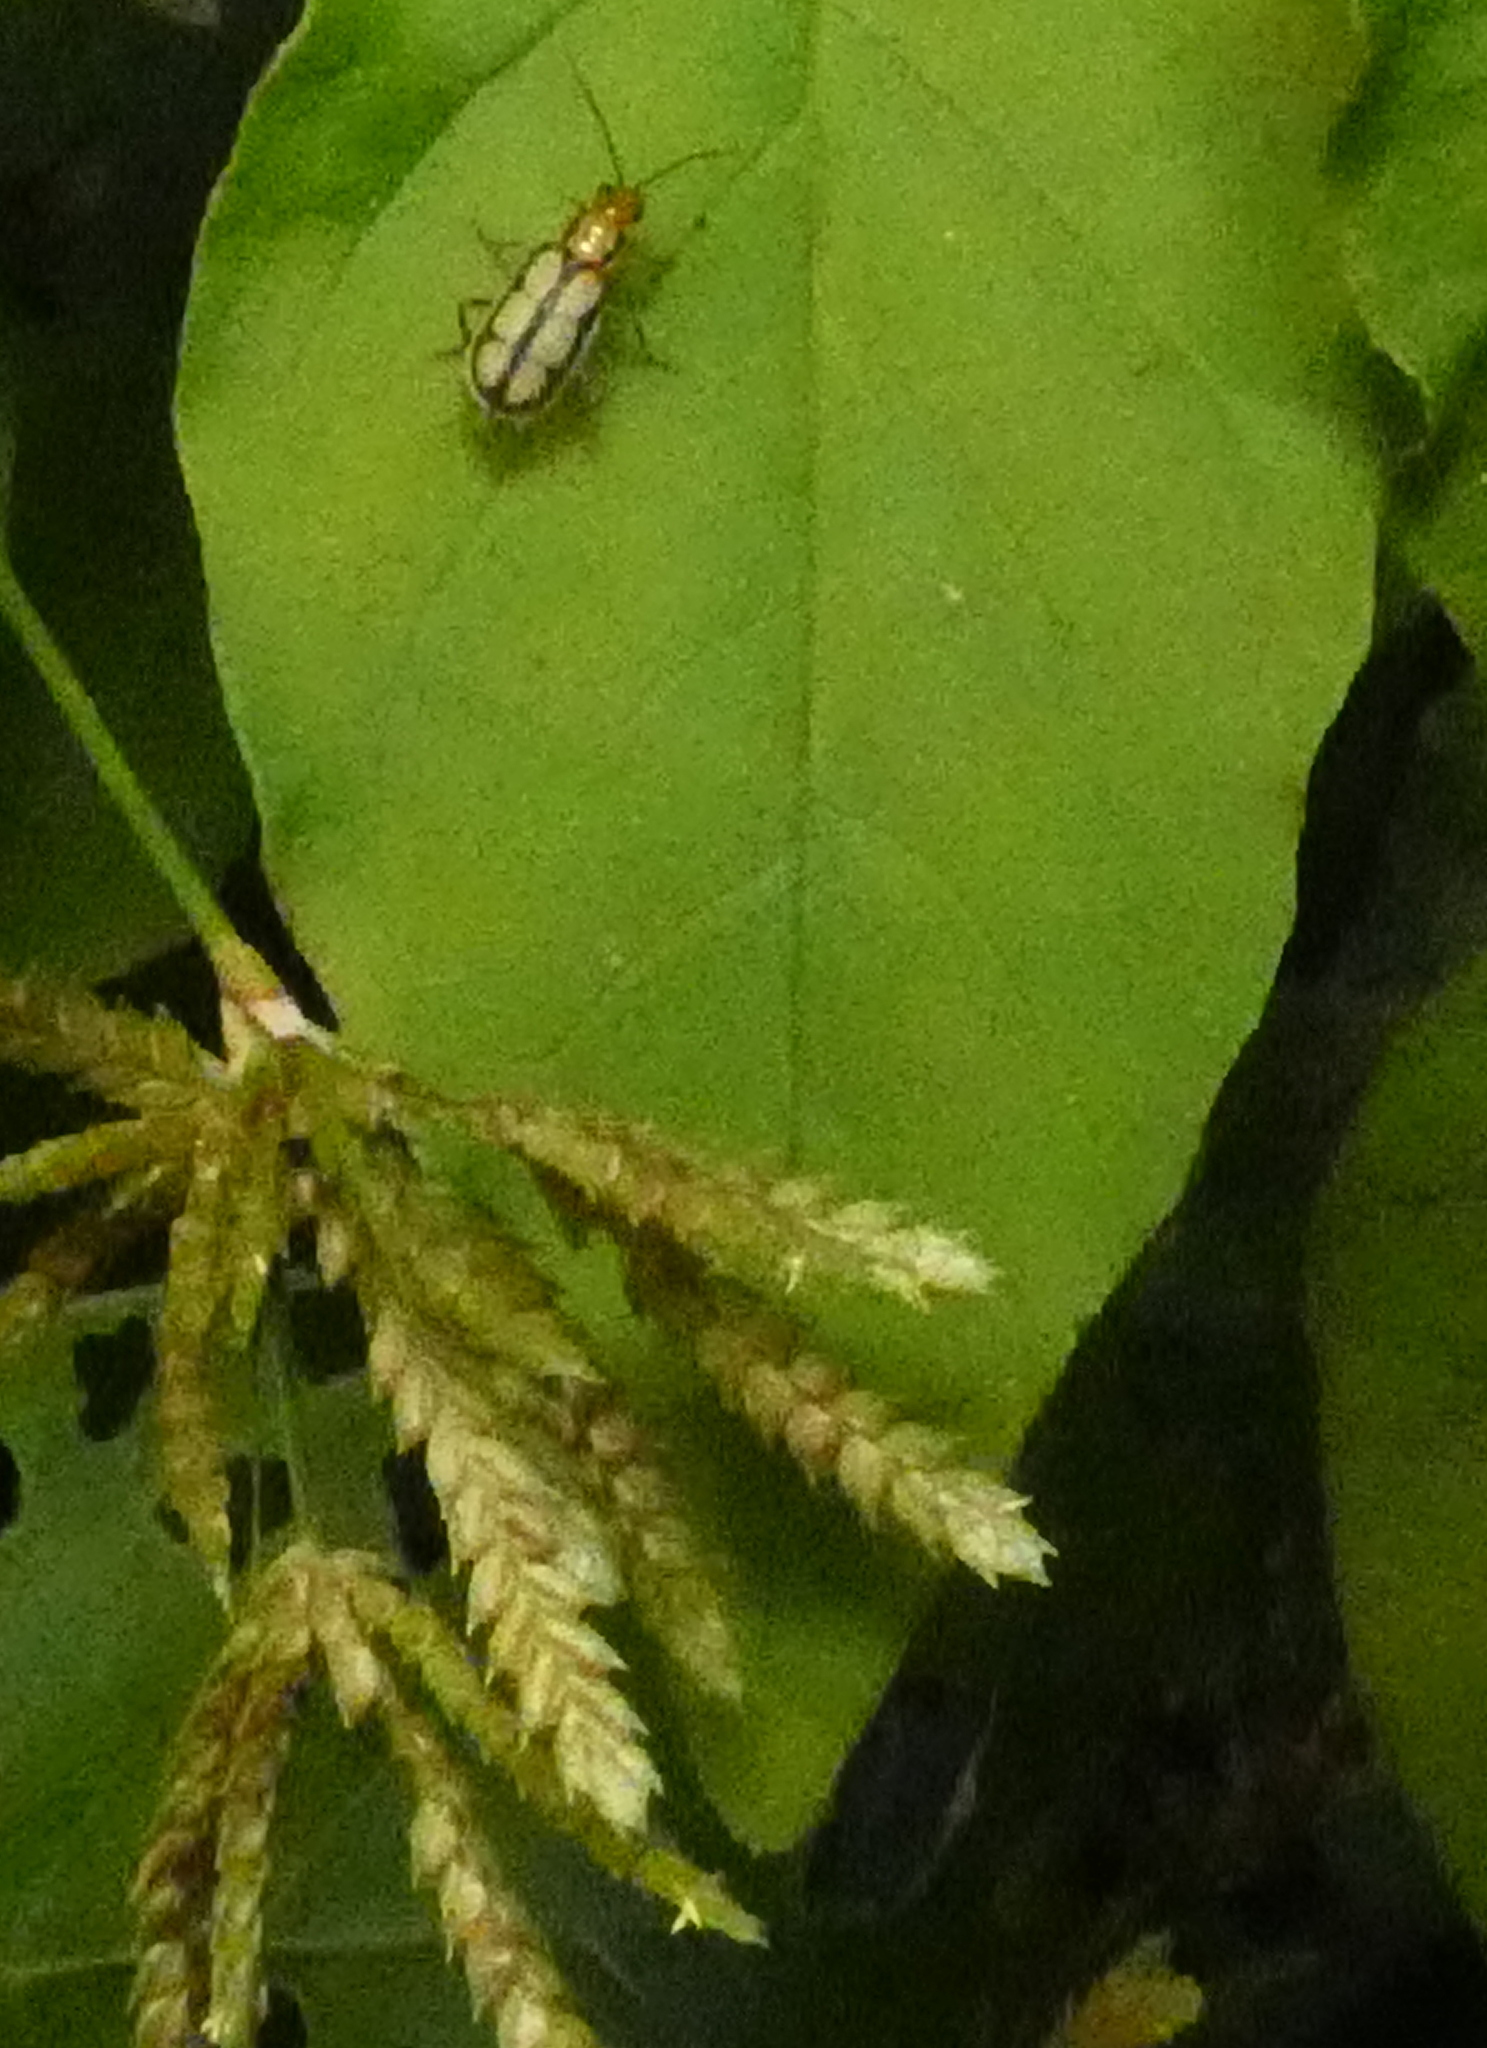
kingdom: Animalia
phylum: Arthropoda
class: Insecta
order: Coleoptera
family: Chrysomelidae
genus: Trichobrotica
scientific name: Trichobrotica
